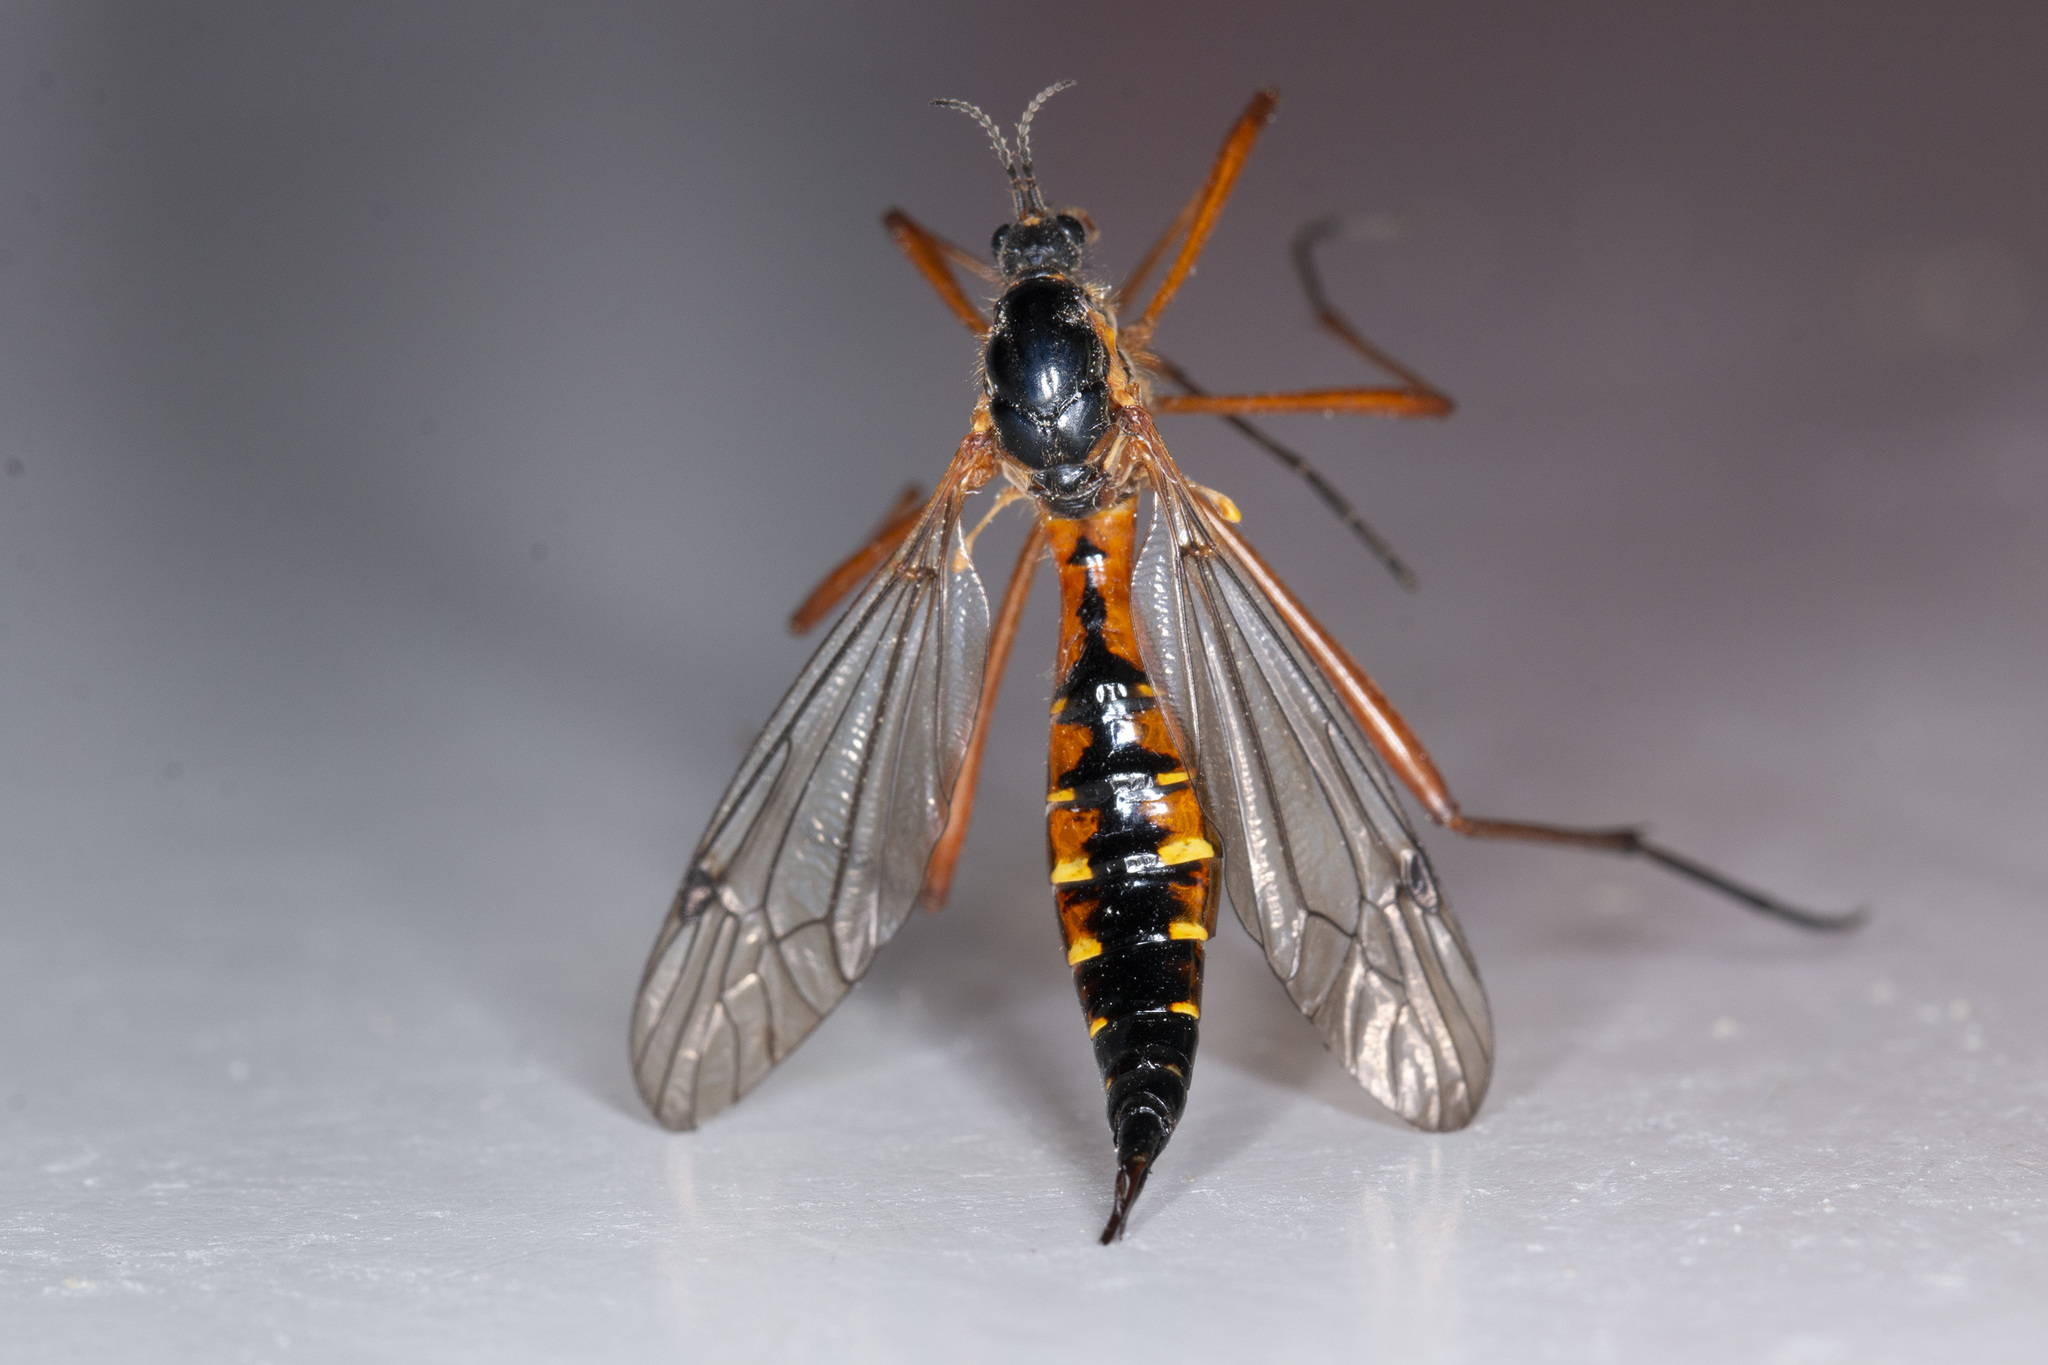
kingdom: Animalia
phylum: Arthropoda
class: Insecta
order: Diptera
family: Tipulidae
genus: Ctenophora
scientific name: Ctenophora pectinicornis
